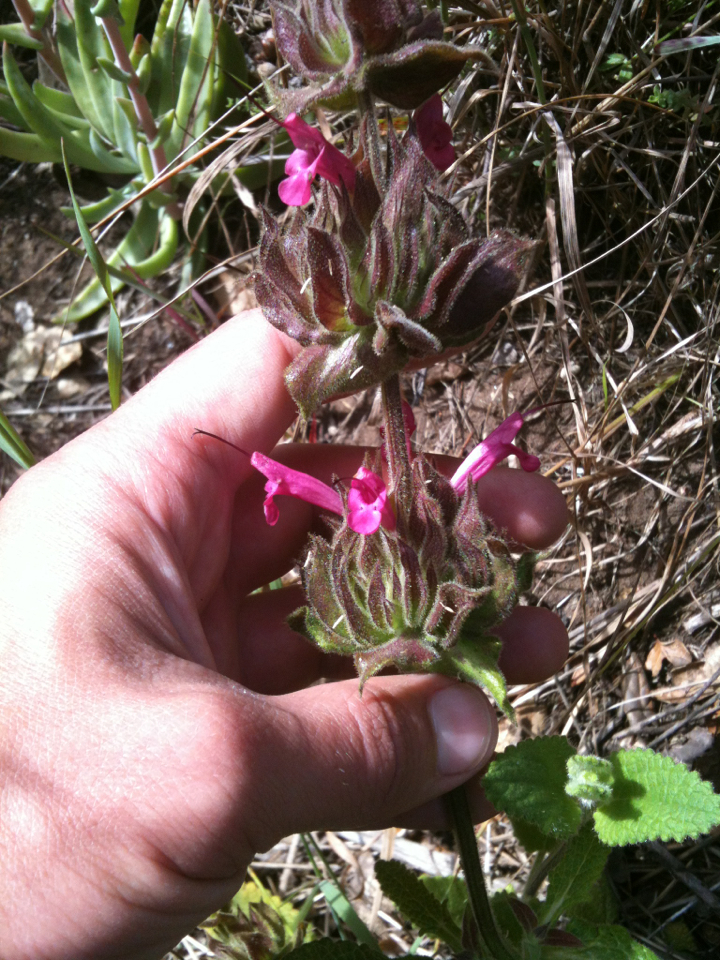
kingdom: Plantae
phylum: Tracheophyta
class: Magnoliopsida
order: Lamiales
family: Lamiaceae
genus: Salvia
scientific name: Salvia spathacea
